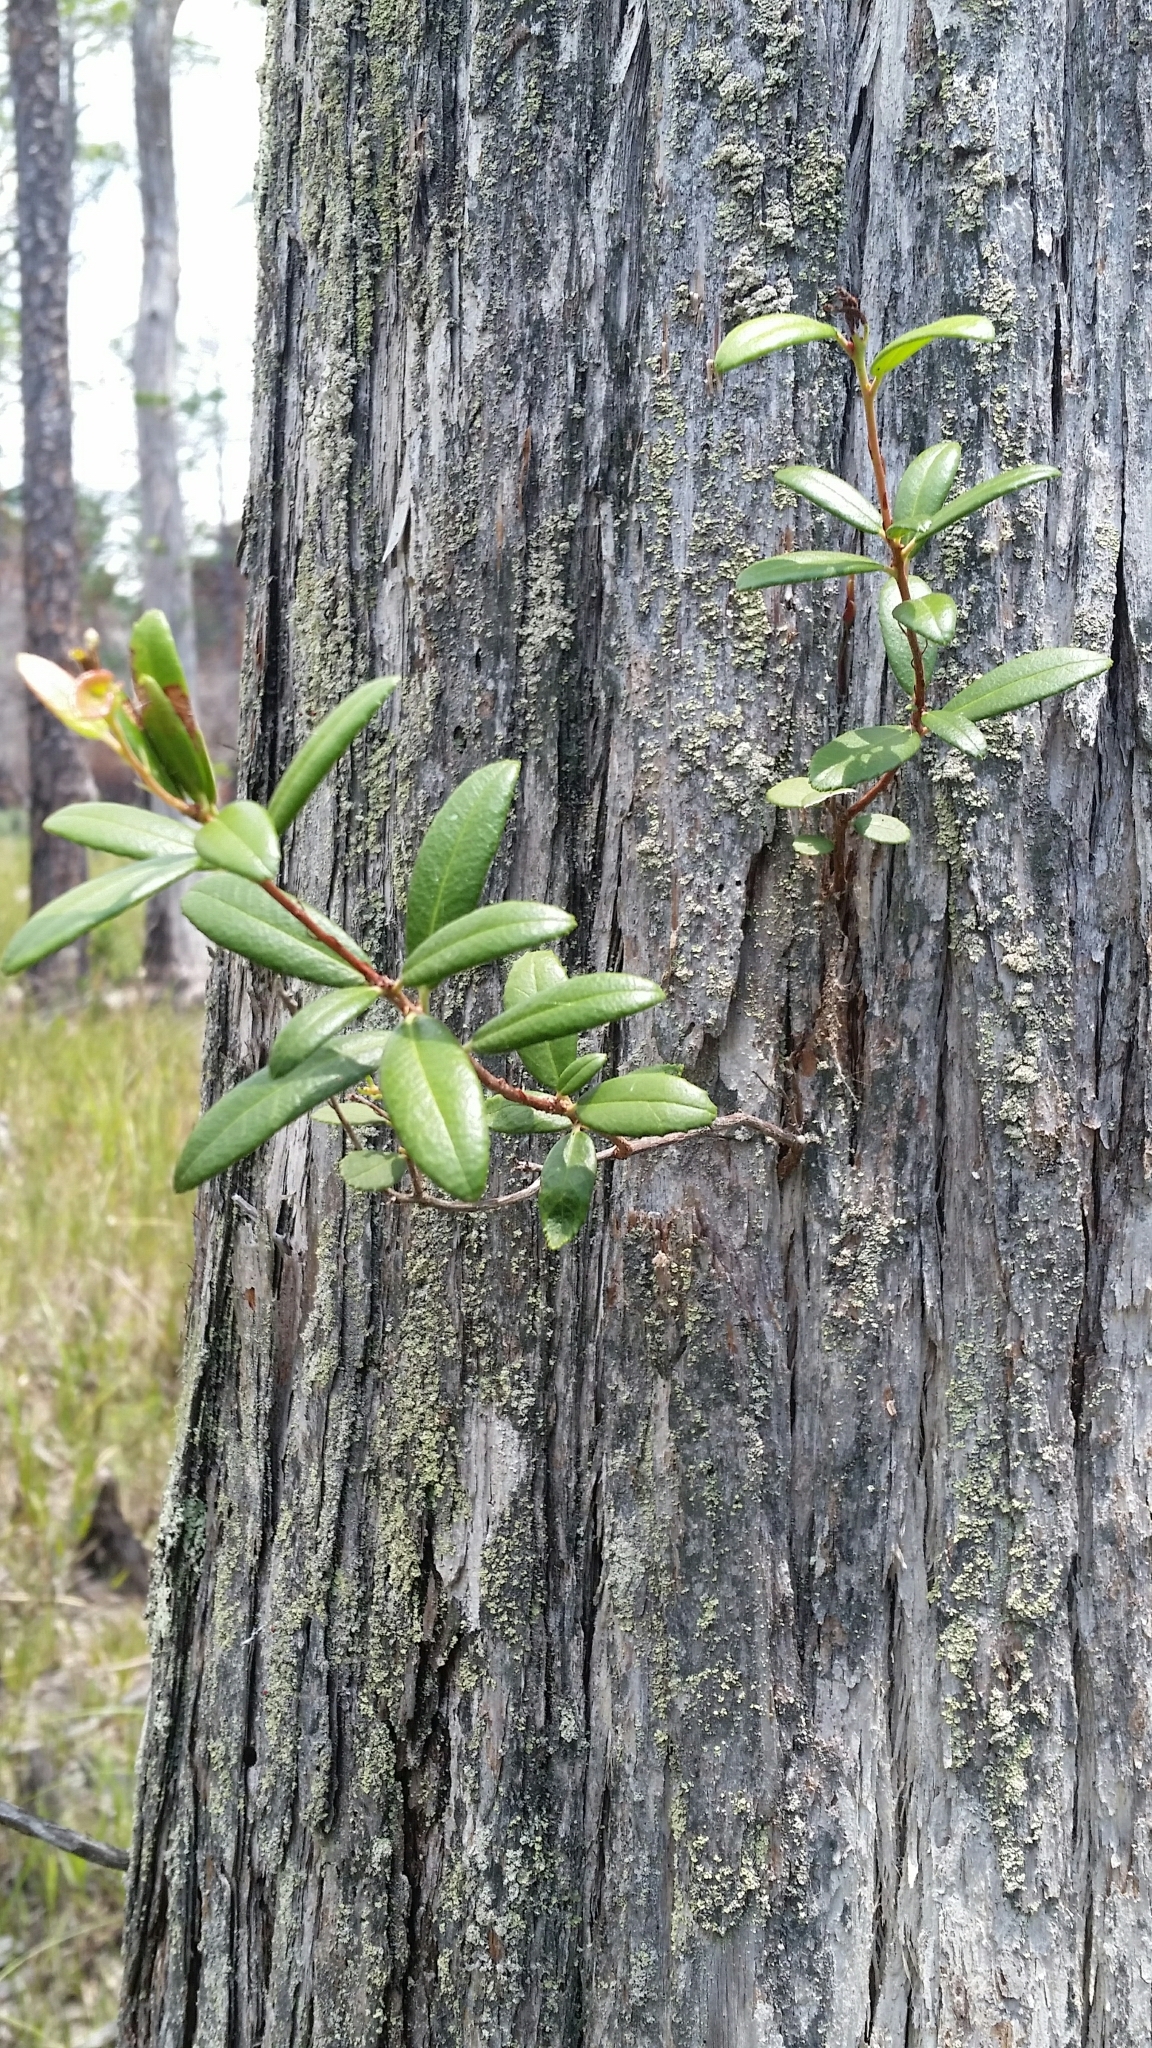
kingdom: Plantae
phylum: Tracheophyta
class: Magnoliopsida
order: Ericales
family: Ericaceae
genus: Pieris
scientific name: Pieris phillyreifolia
